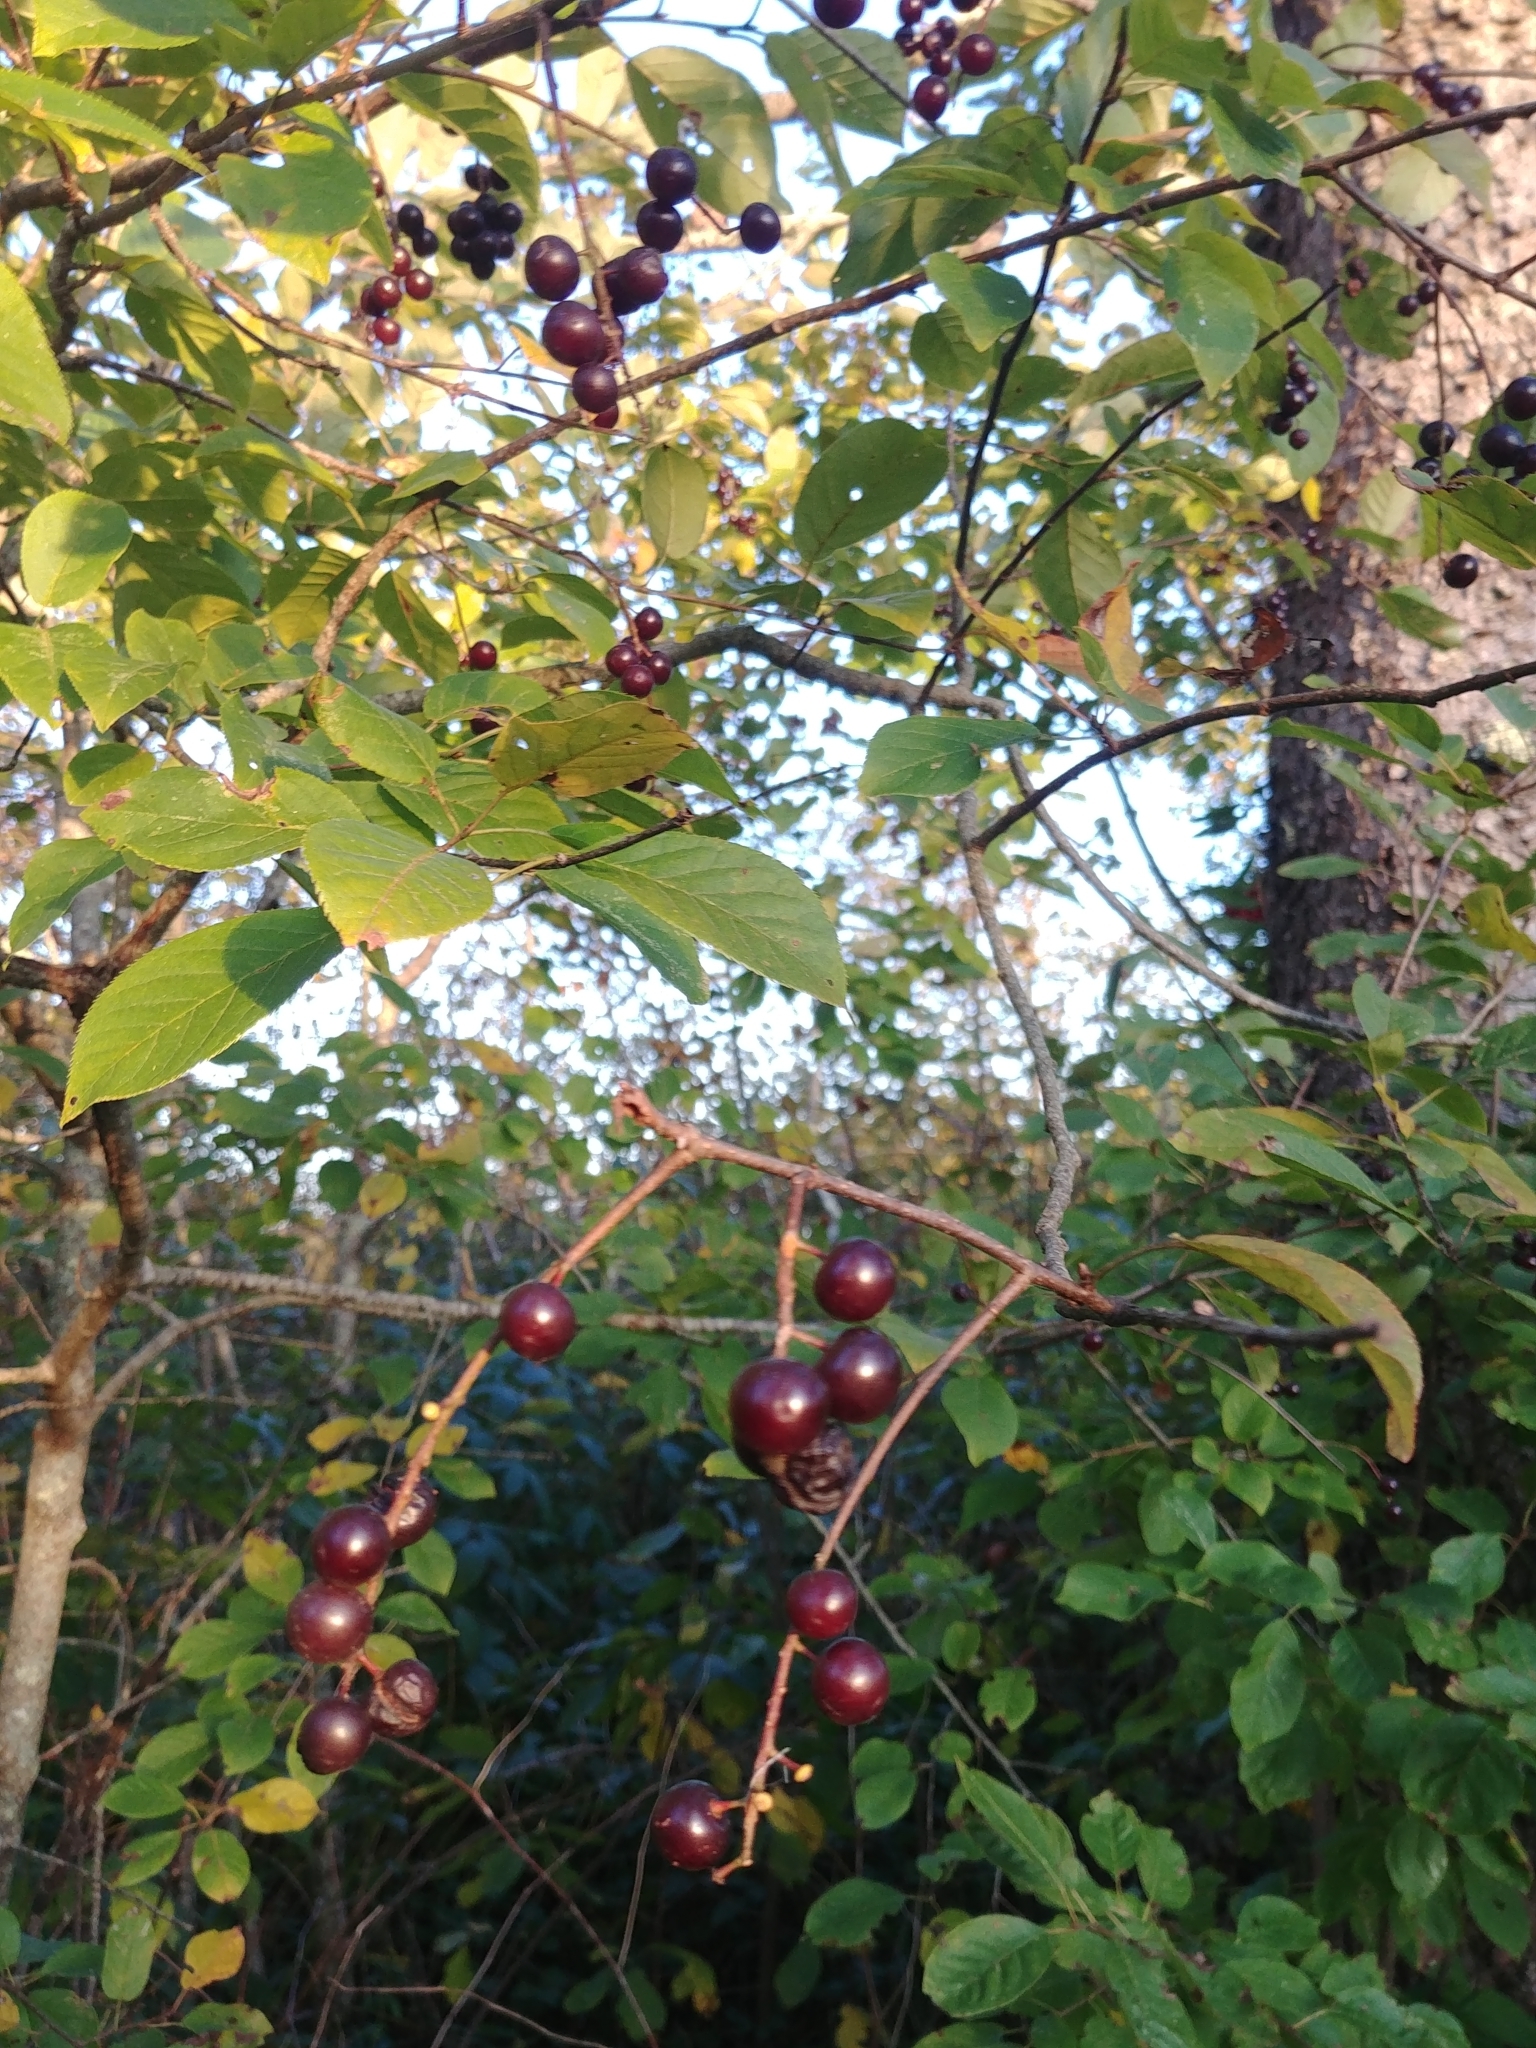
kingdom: Plantae
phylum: Tracheophyta
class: Magnoliopsida
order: Rosales
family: Rosaceae
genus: Prunus
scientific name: Prunus virginiana
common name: Chokecherry
